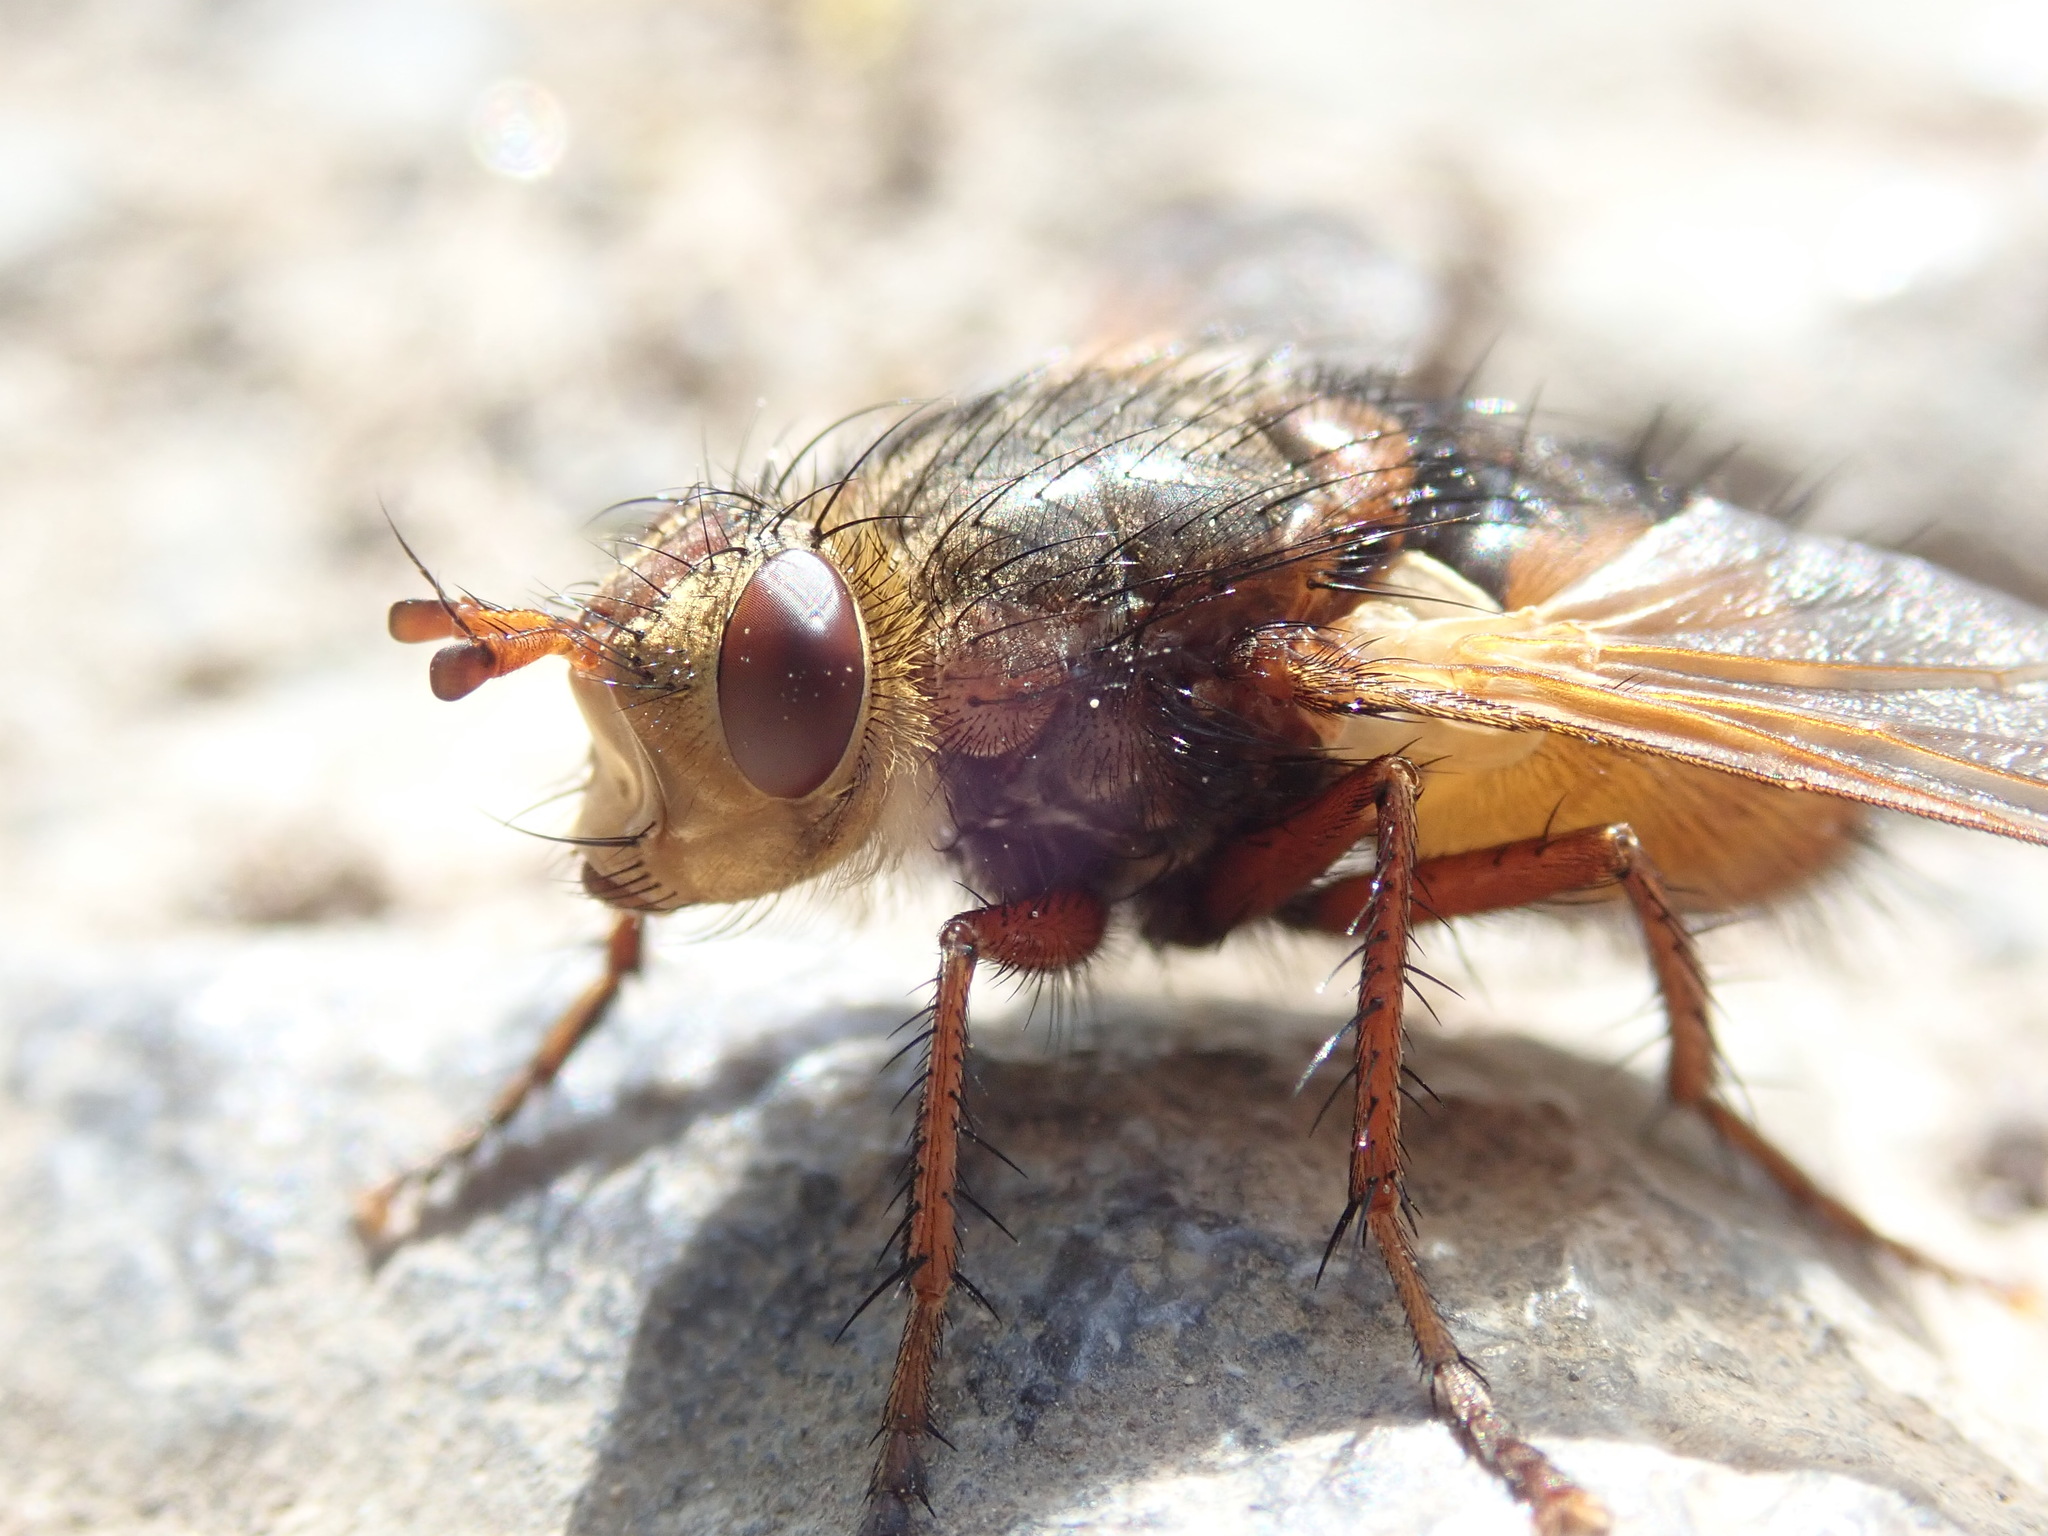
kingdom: Animalia
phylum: Arthropoda
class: Insecta
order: Diptera
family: Tachinidae
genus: Tachina
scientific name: Tachina fera
